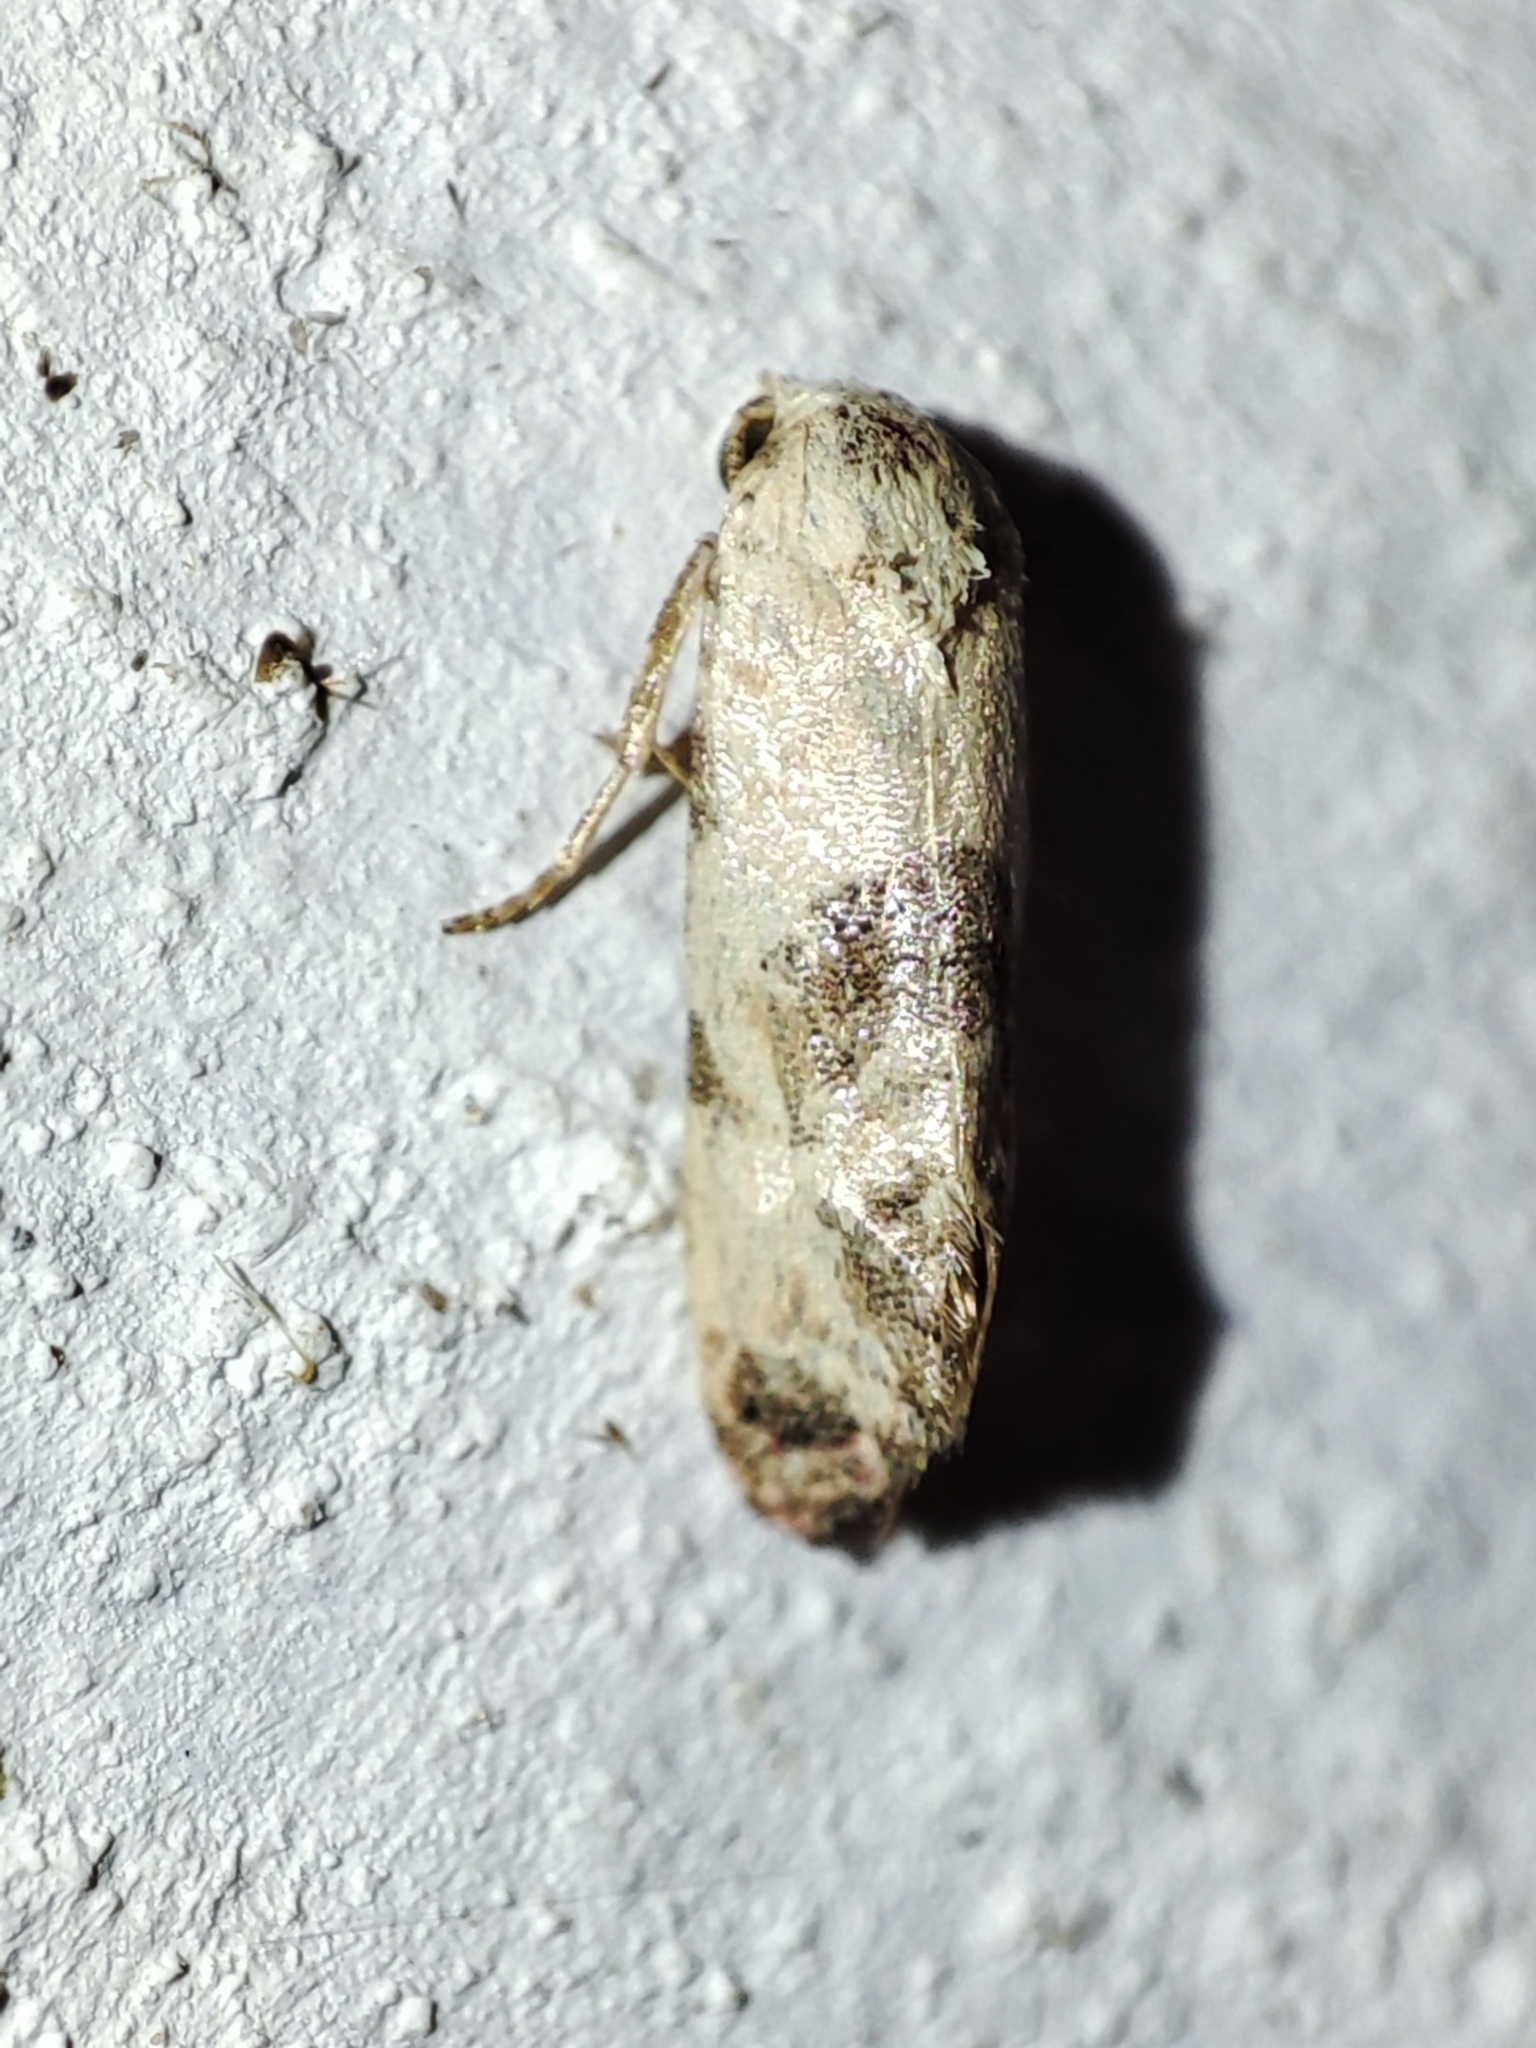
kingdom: Animalia
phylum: Arthropoda
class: Insecta
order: Lepidoptera
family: Tortricidae
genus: Cochylis
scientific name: Cochylis Pontoturania posterana
